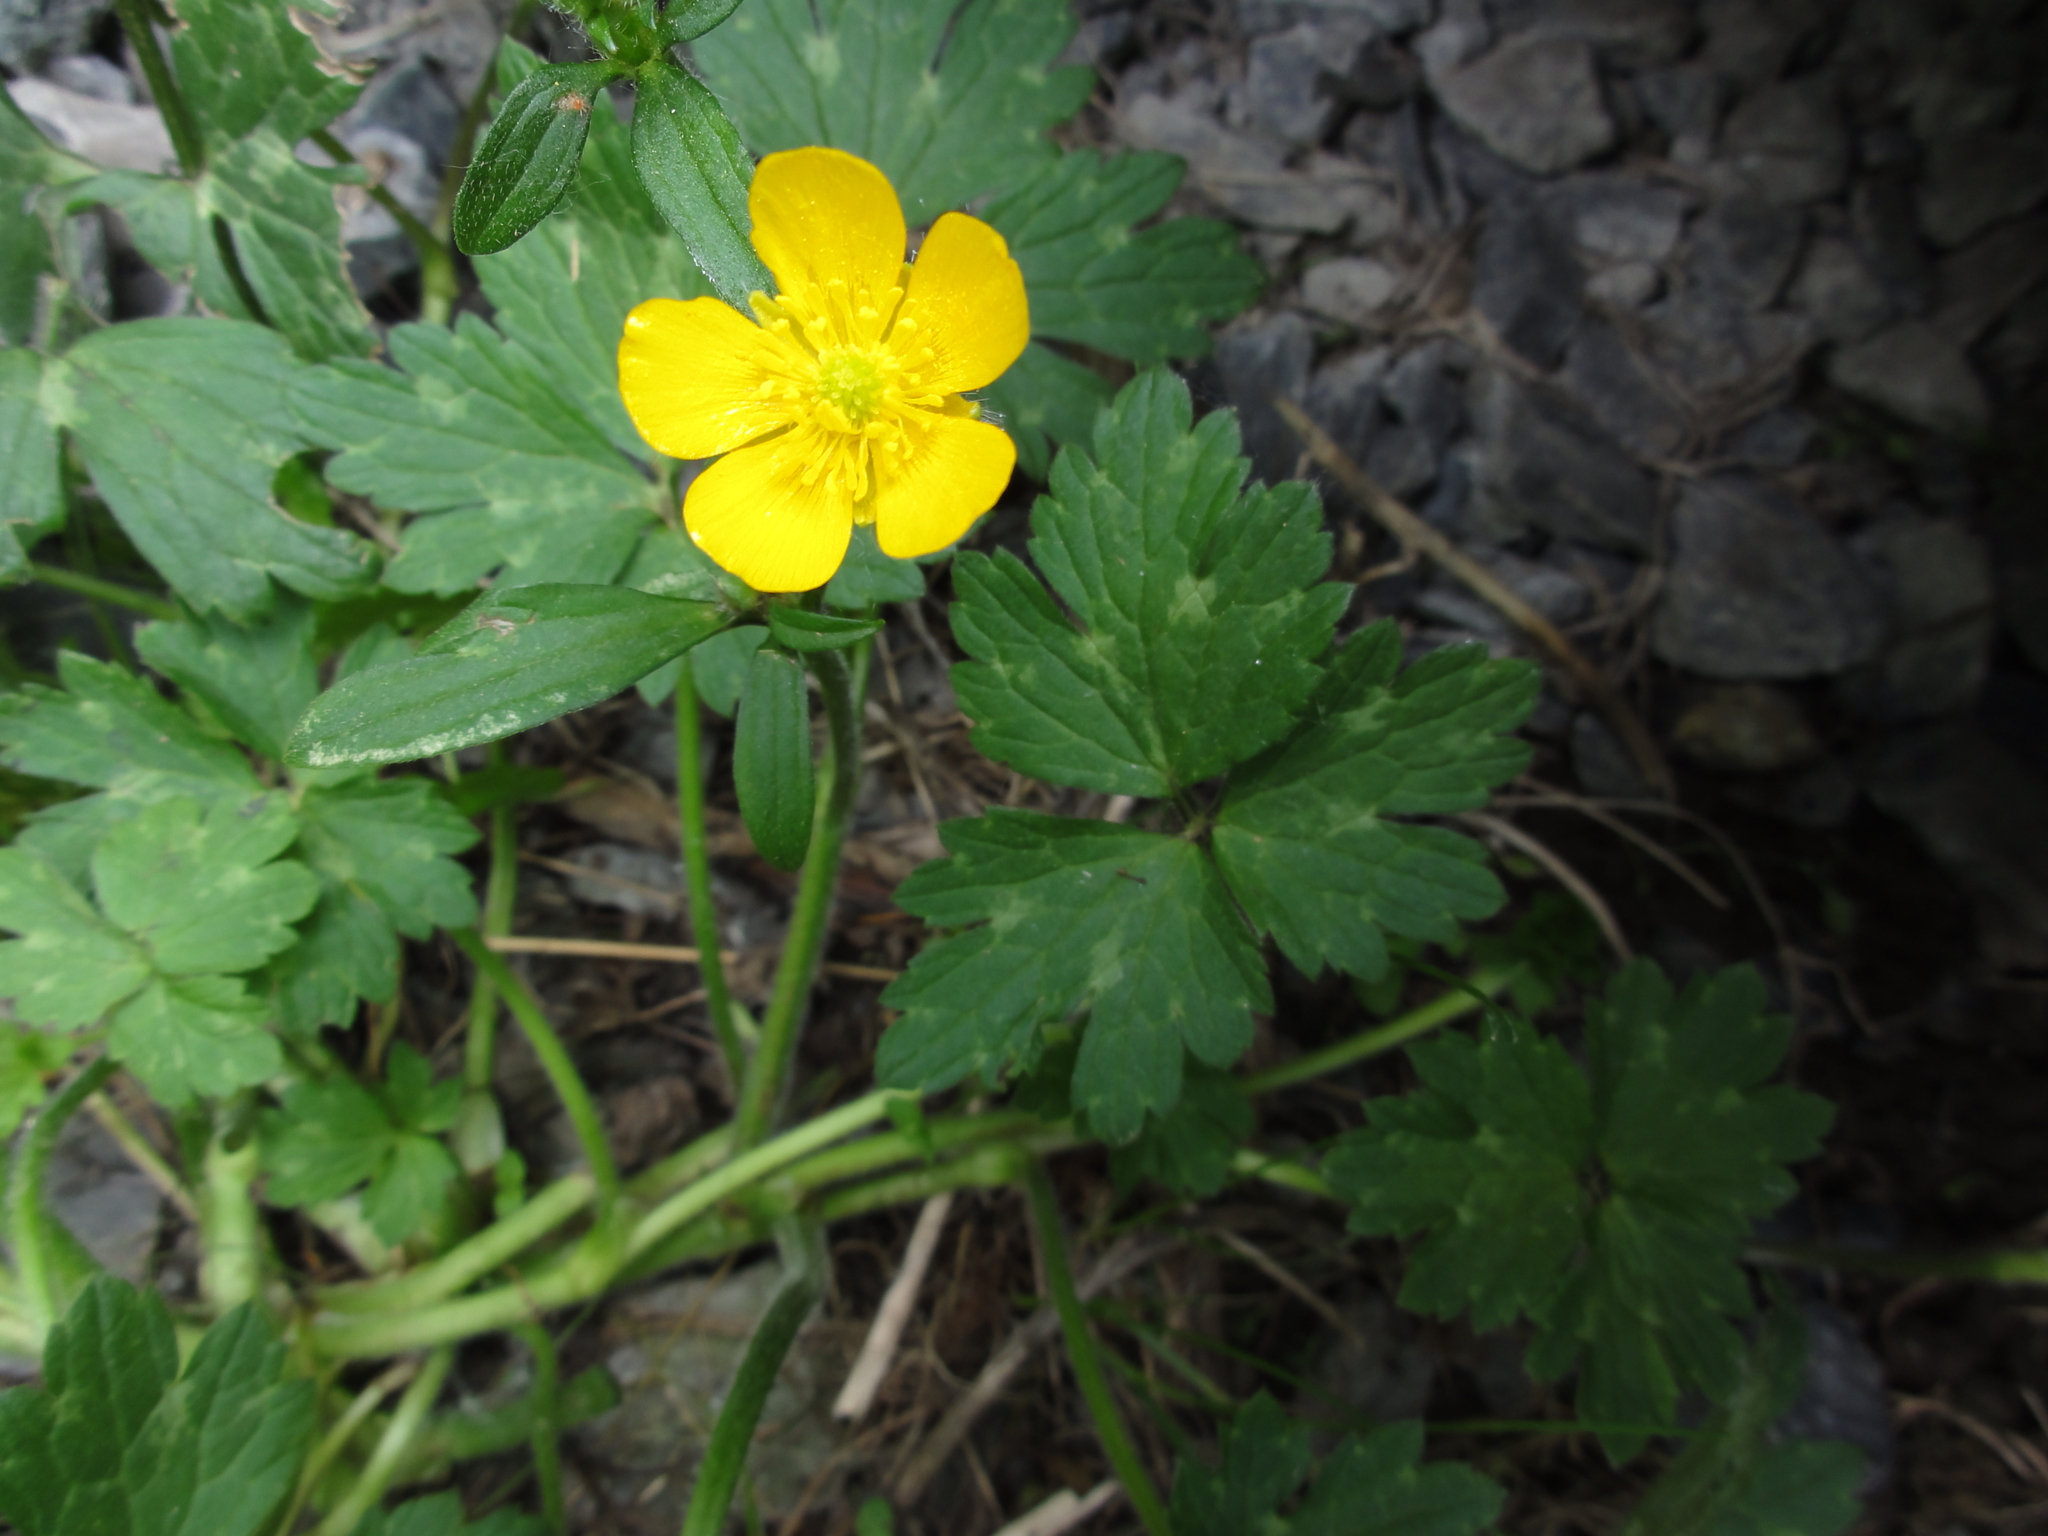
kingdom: Plantae
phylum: Tracheophyta
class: Magnoliopsida
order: Ranunculales
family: Ranunculaceae
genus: Ranunculus
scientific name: Ranunculus repens
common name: Creeping buttercup
